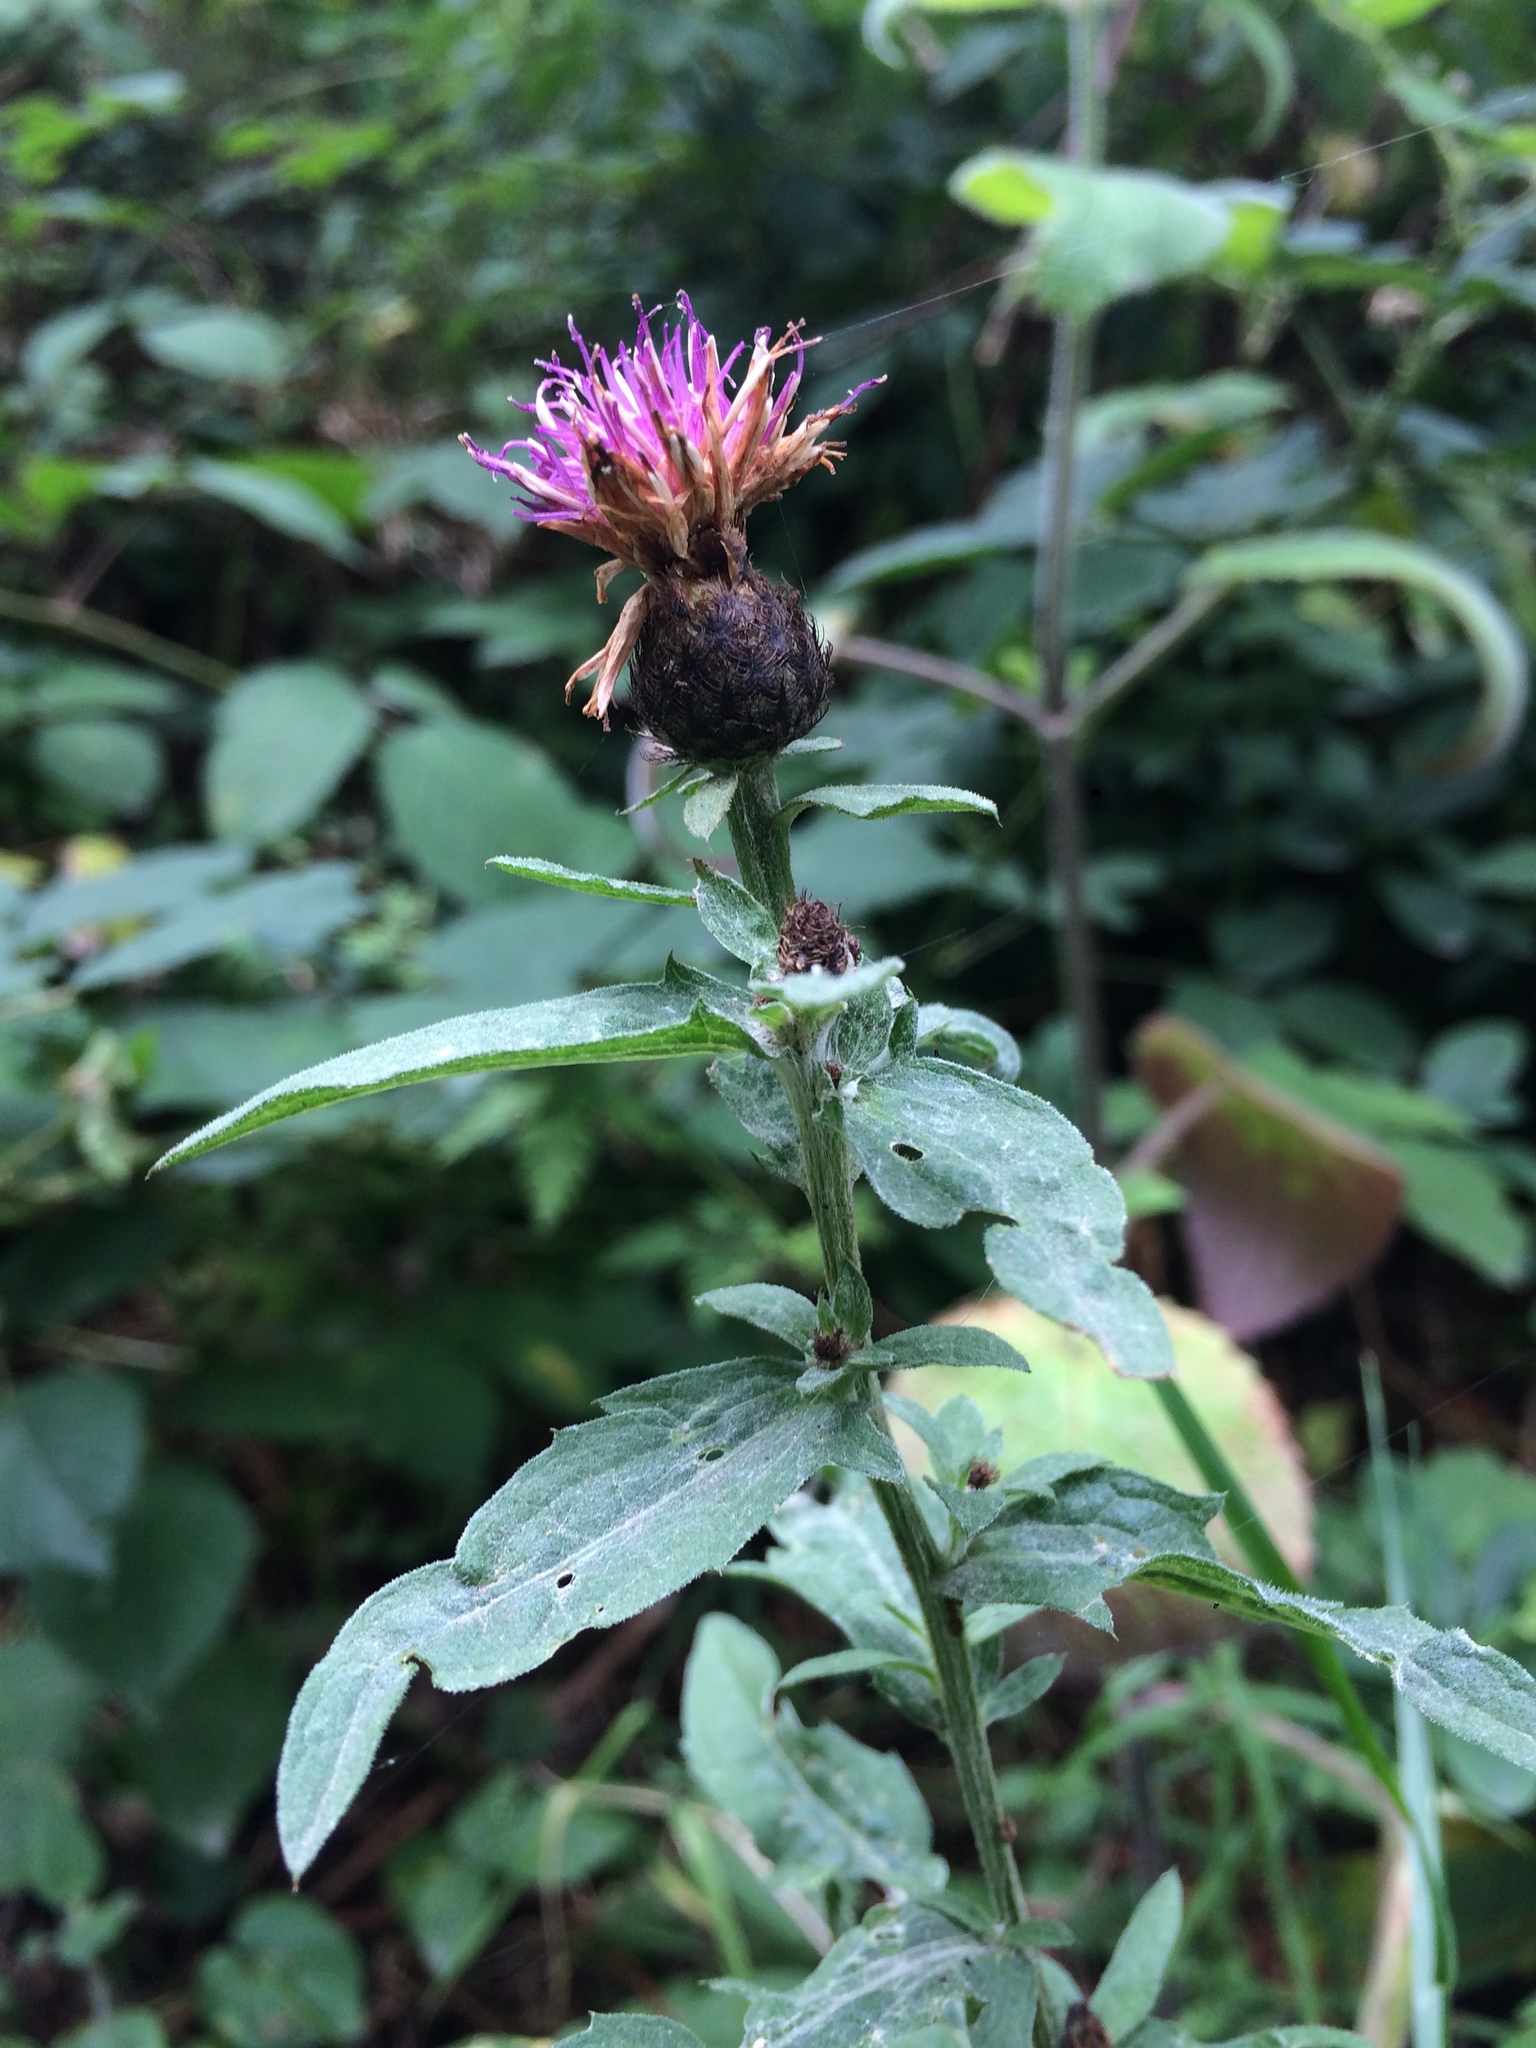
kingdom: Plantae
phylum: Tracheophyta
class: Magnoliopsida
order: Asterales
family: Asteraceae
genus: Centaurea
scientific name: Centaurea nigra
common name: Lesser knapweed
